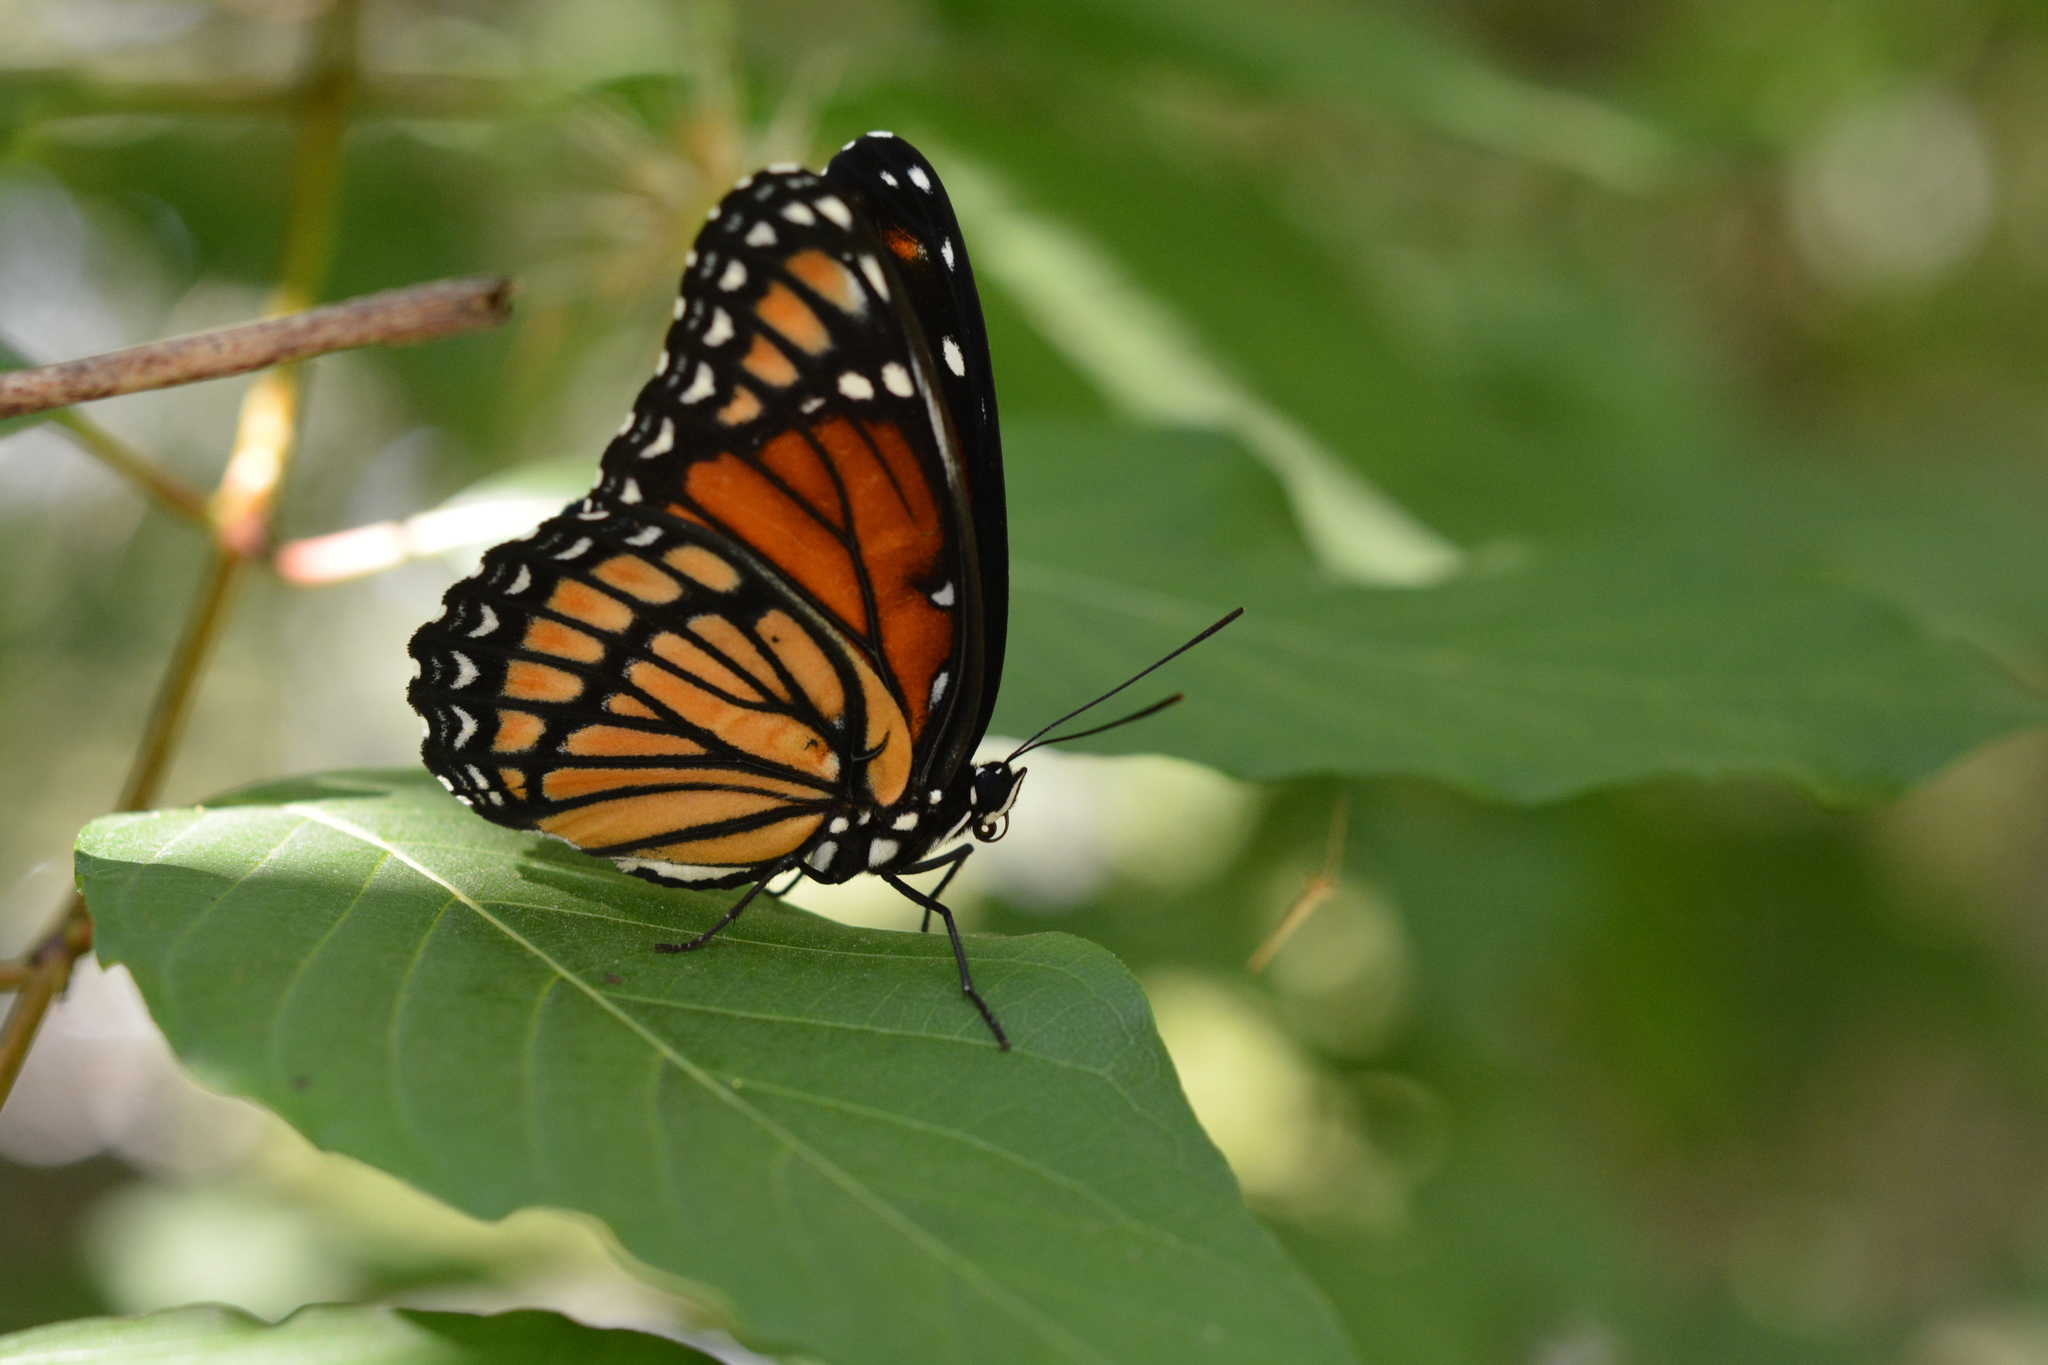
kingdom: Animalia
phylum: Arthropoda
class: Insecta
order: Lepidoptera
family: Nymphalidae
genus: Limenitis
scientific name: Limenitis archippus
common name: Viceroy
